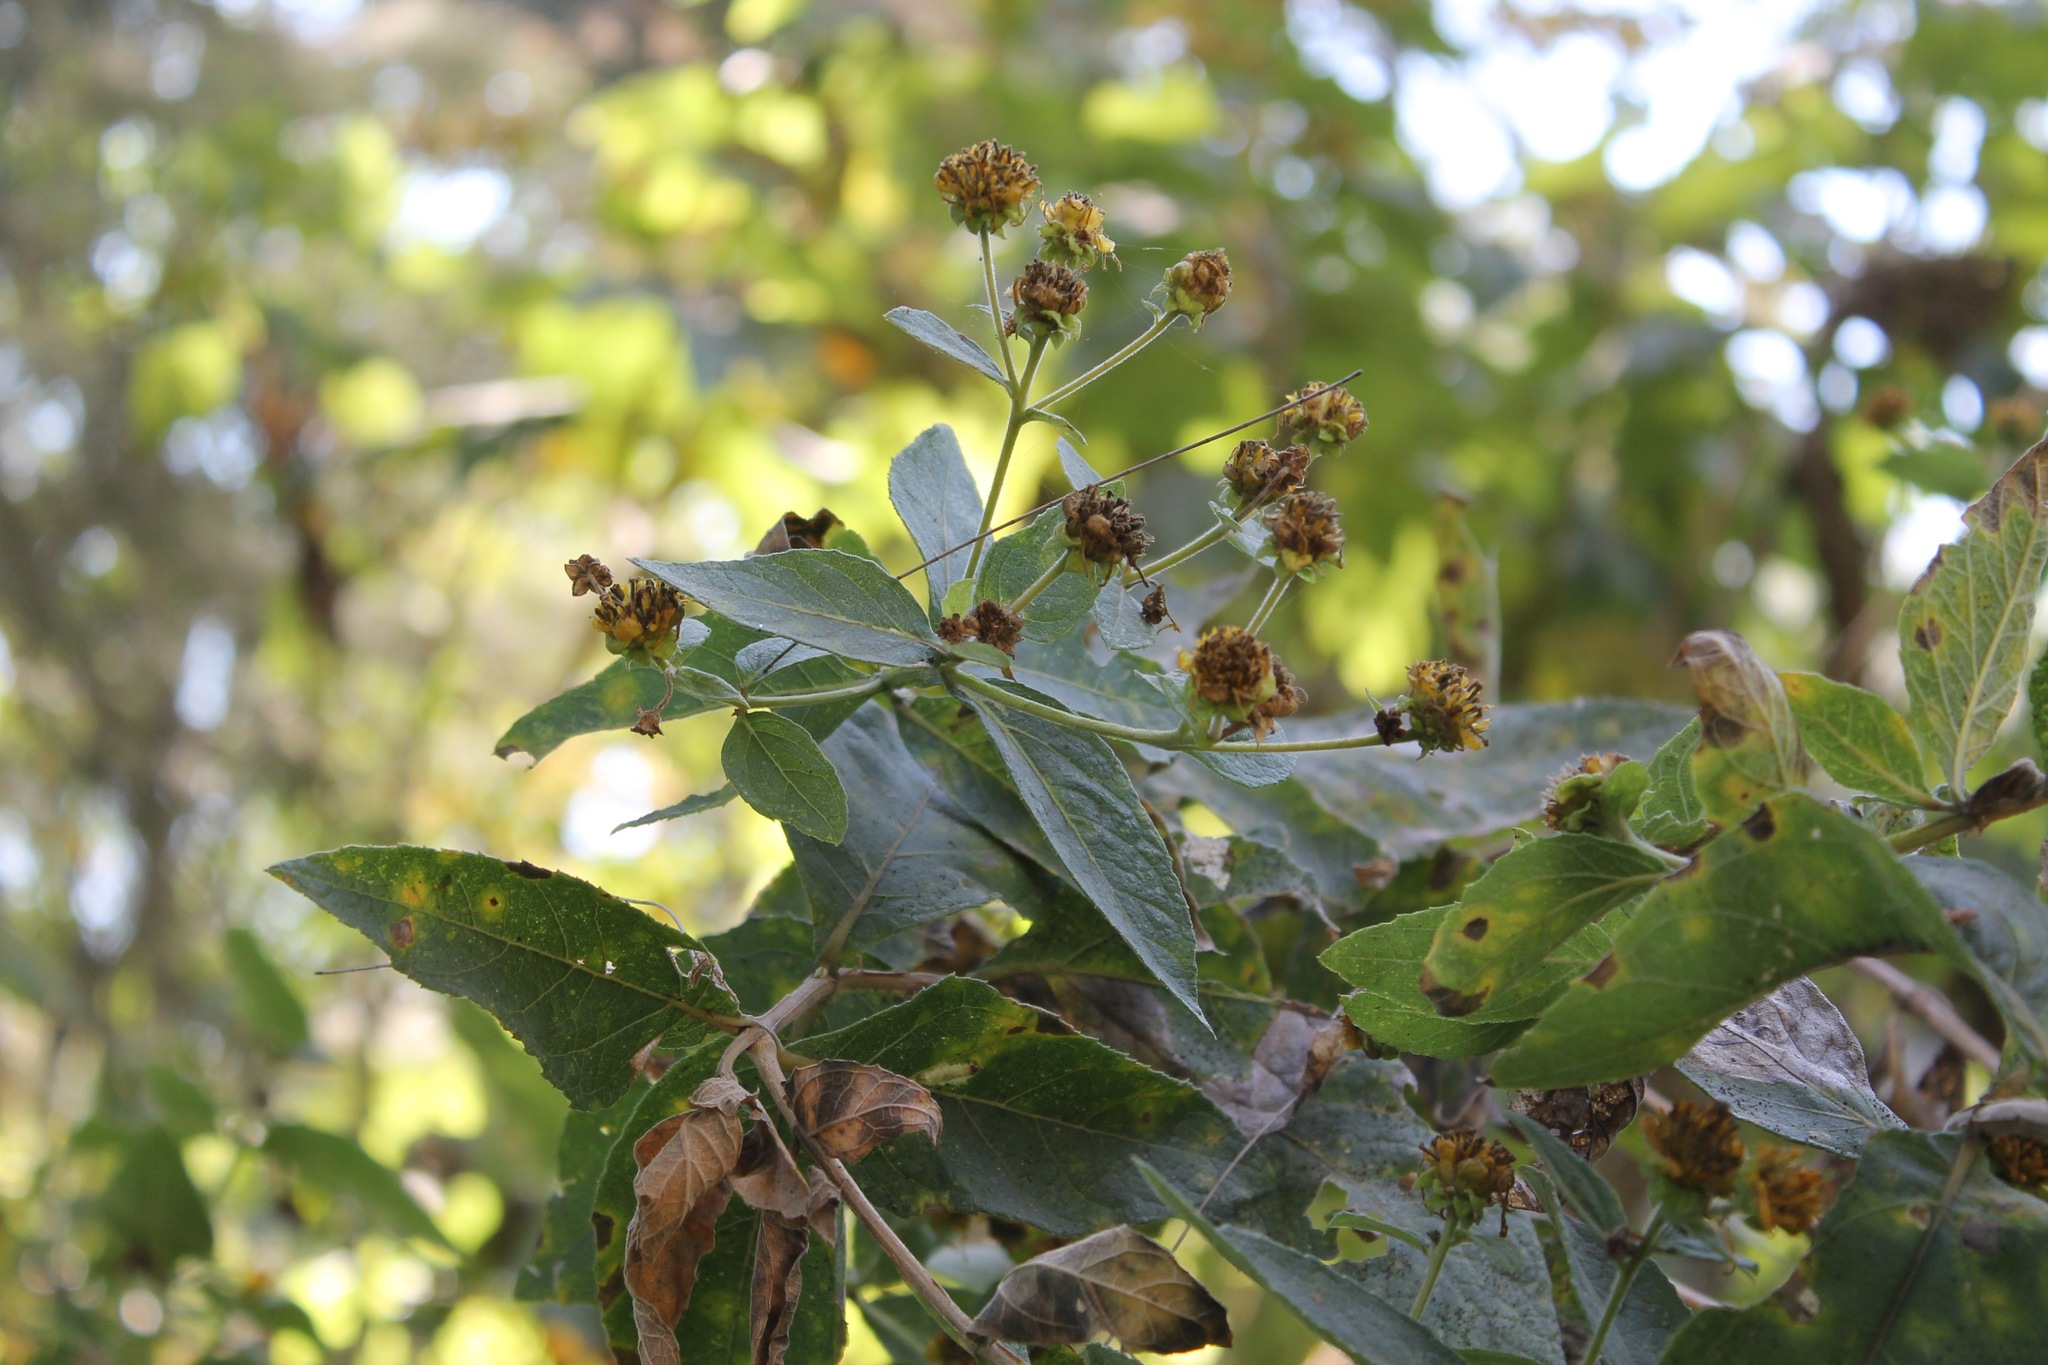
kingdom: Plantae
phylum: Tracheophyta
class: Magnoliopsida
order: Asterales
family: Asteraceae
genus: Verbesina
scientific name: Verbesina sphaerocephala
